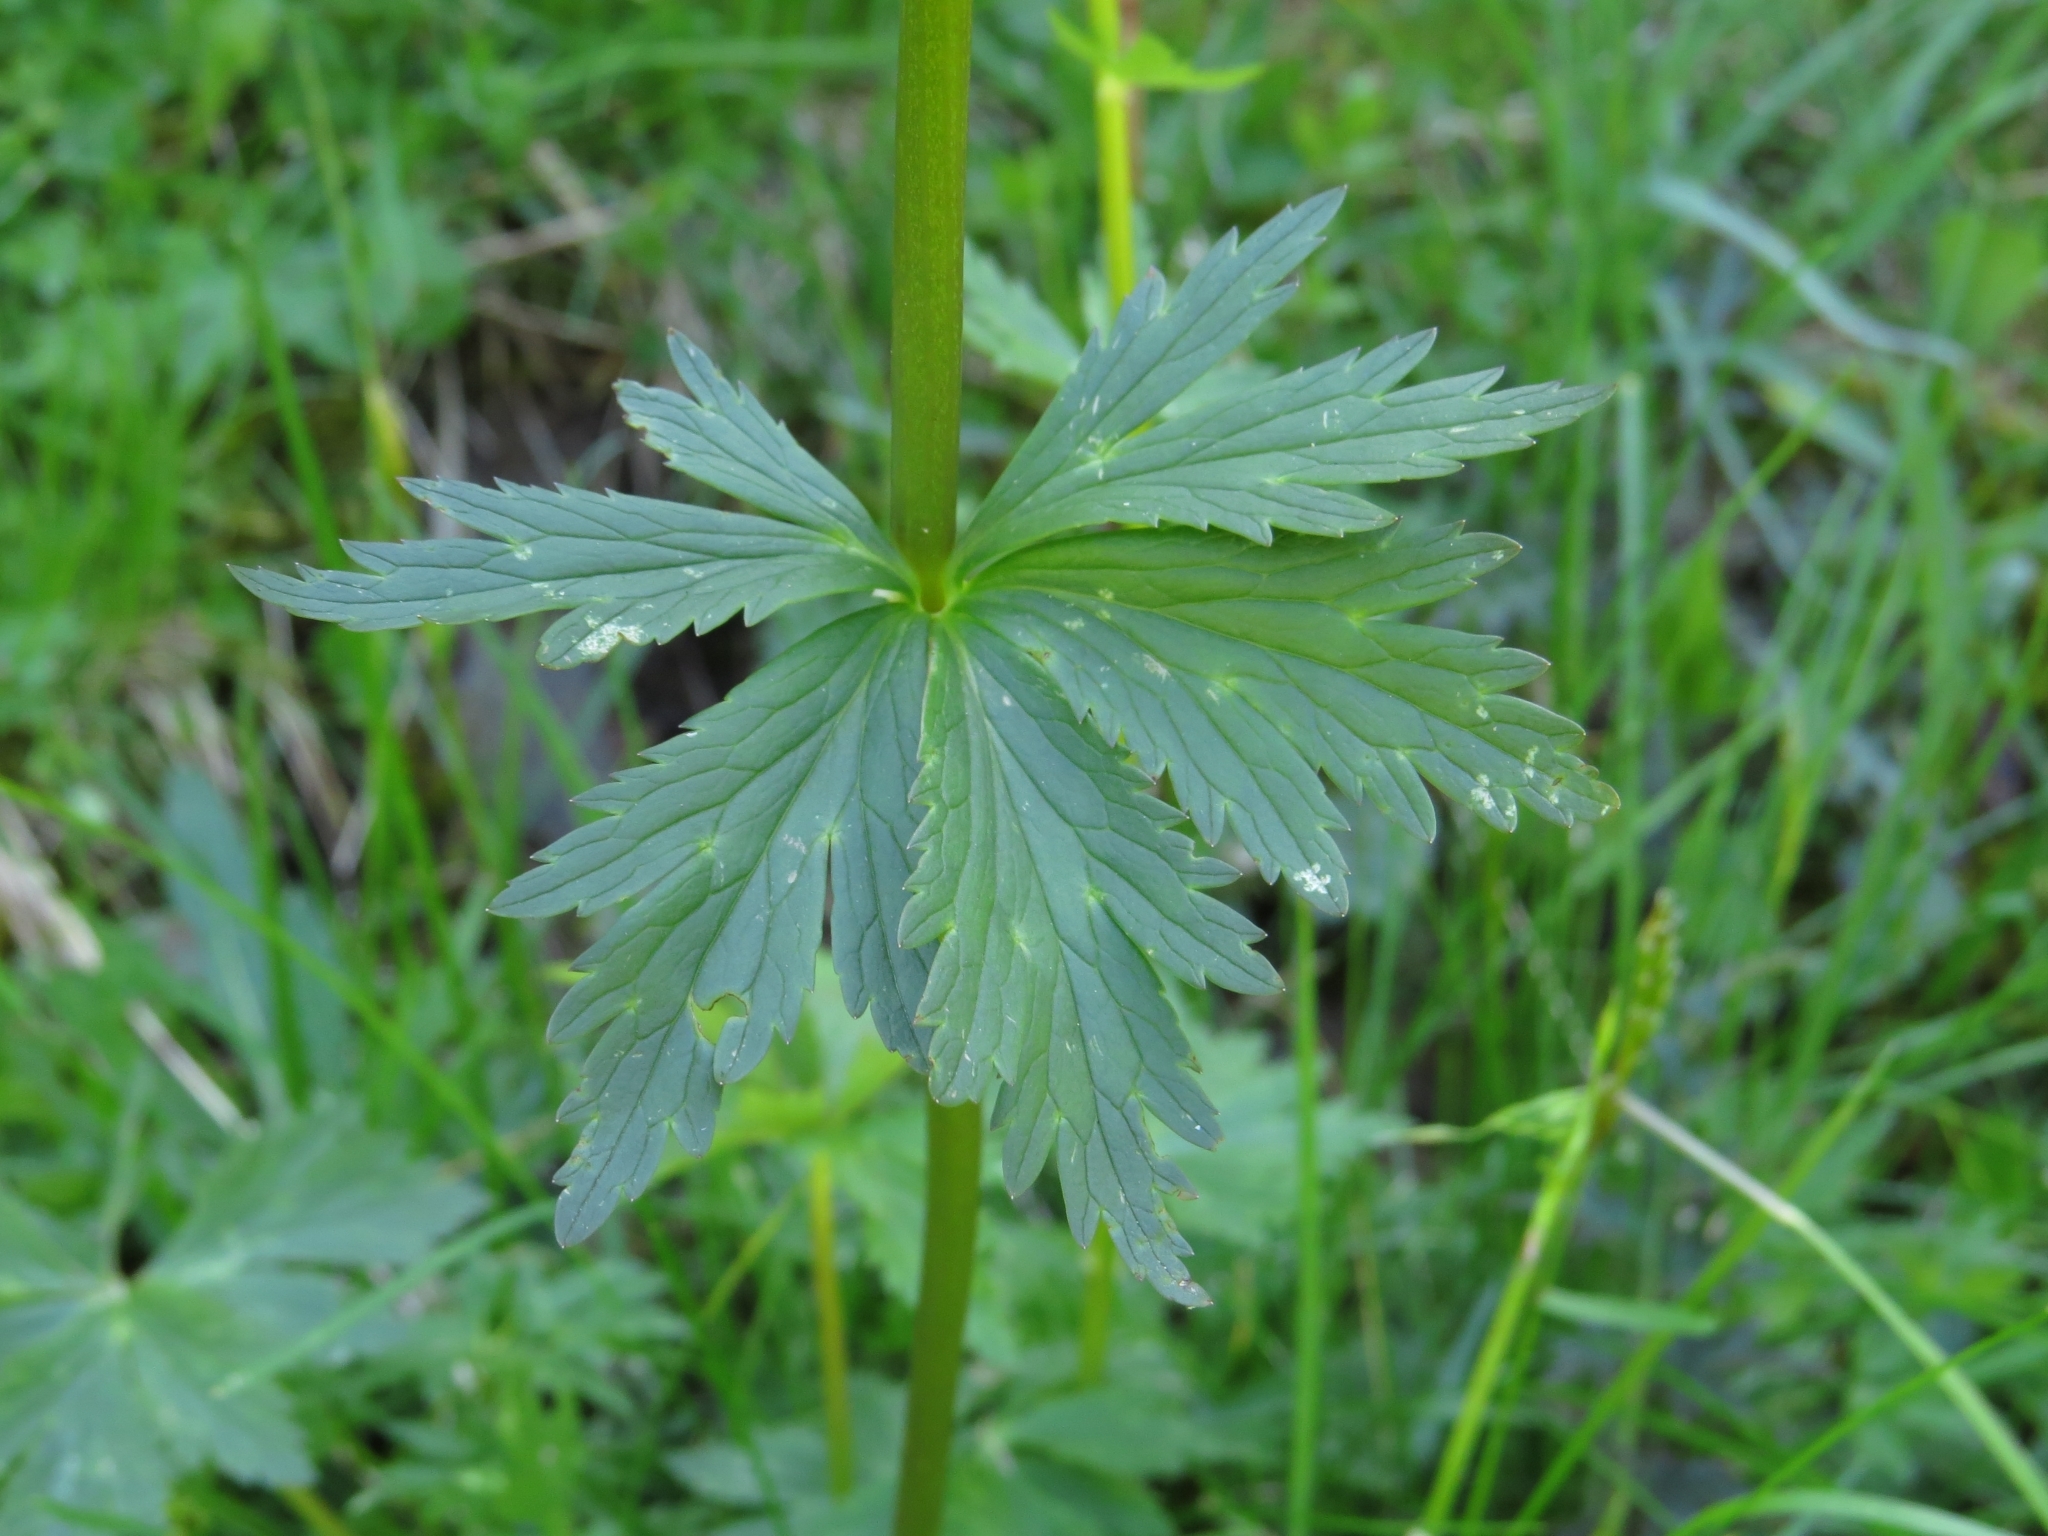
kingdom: Plantae
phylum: Tracheophyta
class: Magnoliopsida
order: Ranunculales
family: Ranunculaceae
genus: Trollius
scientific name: Trollius europaeus
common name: European globeflower
